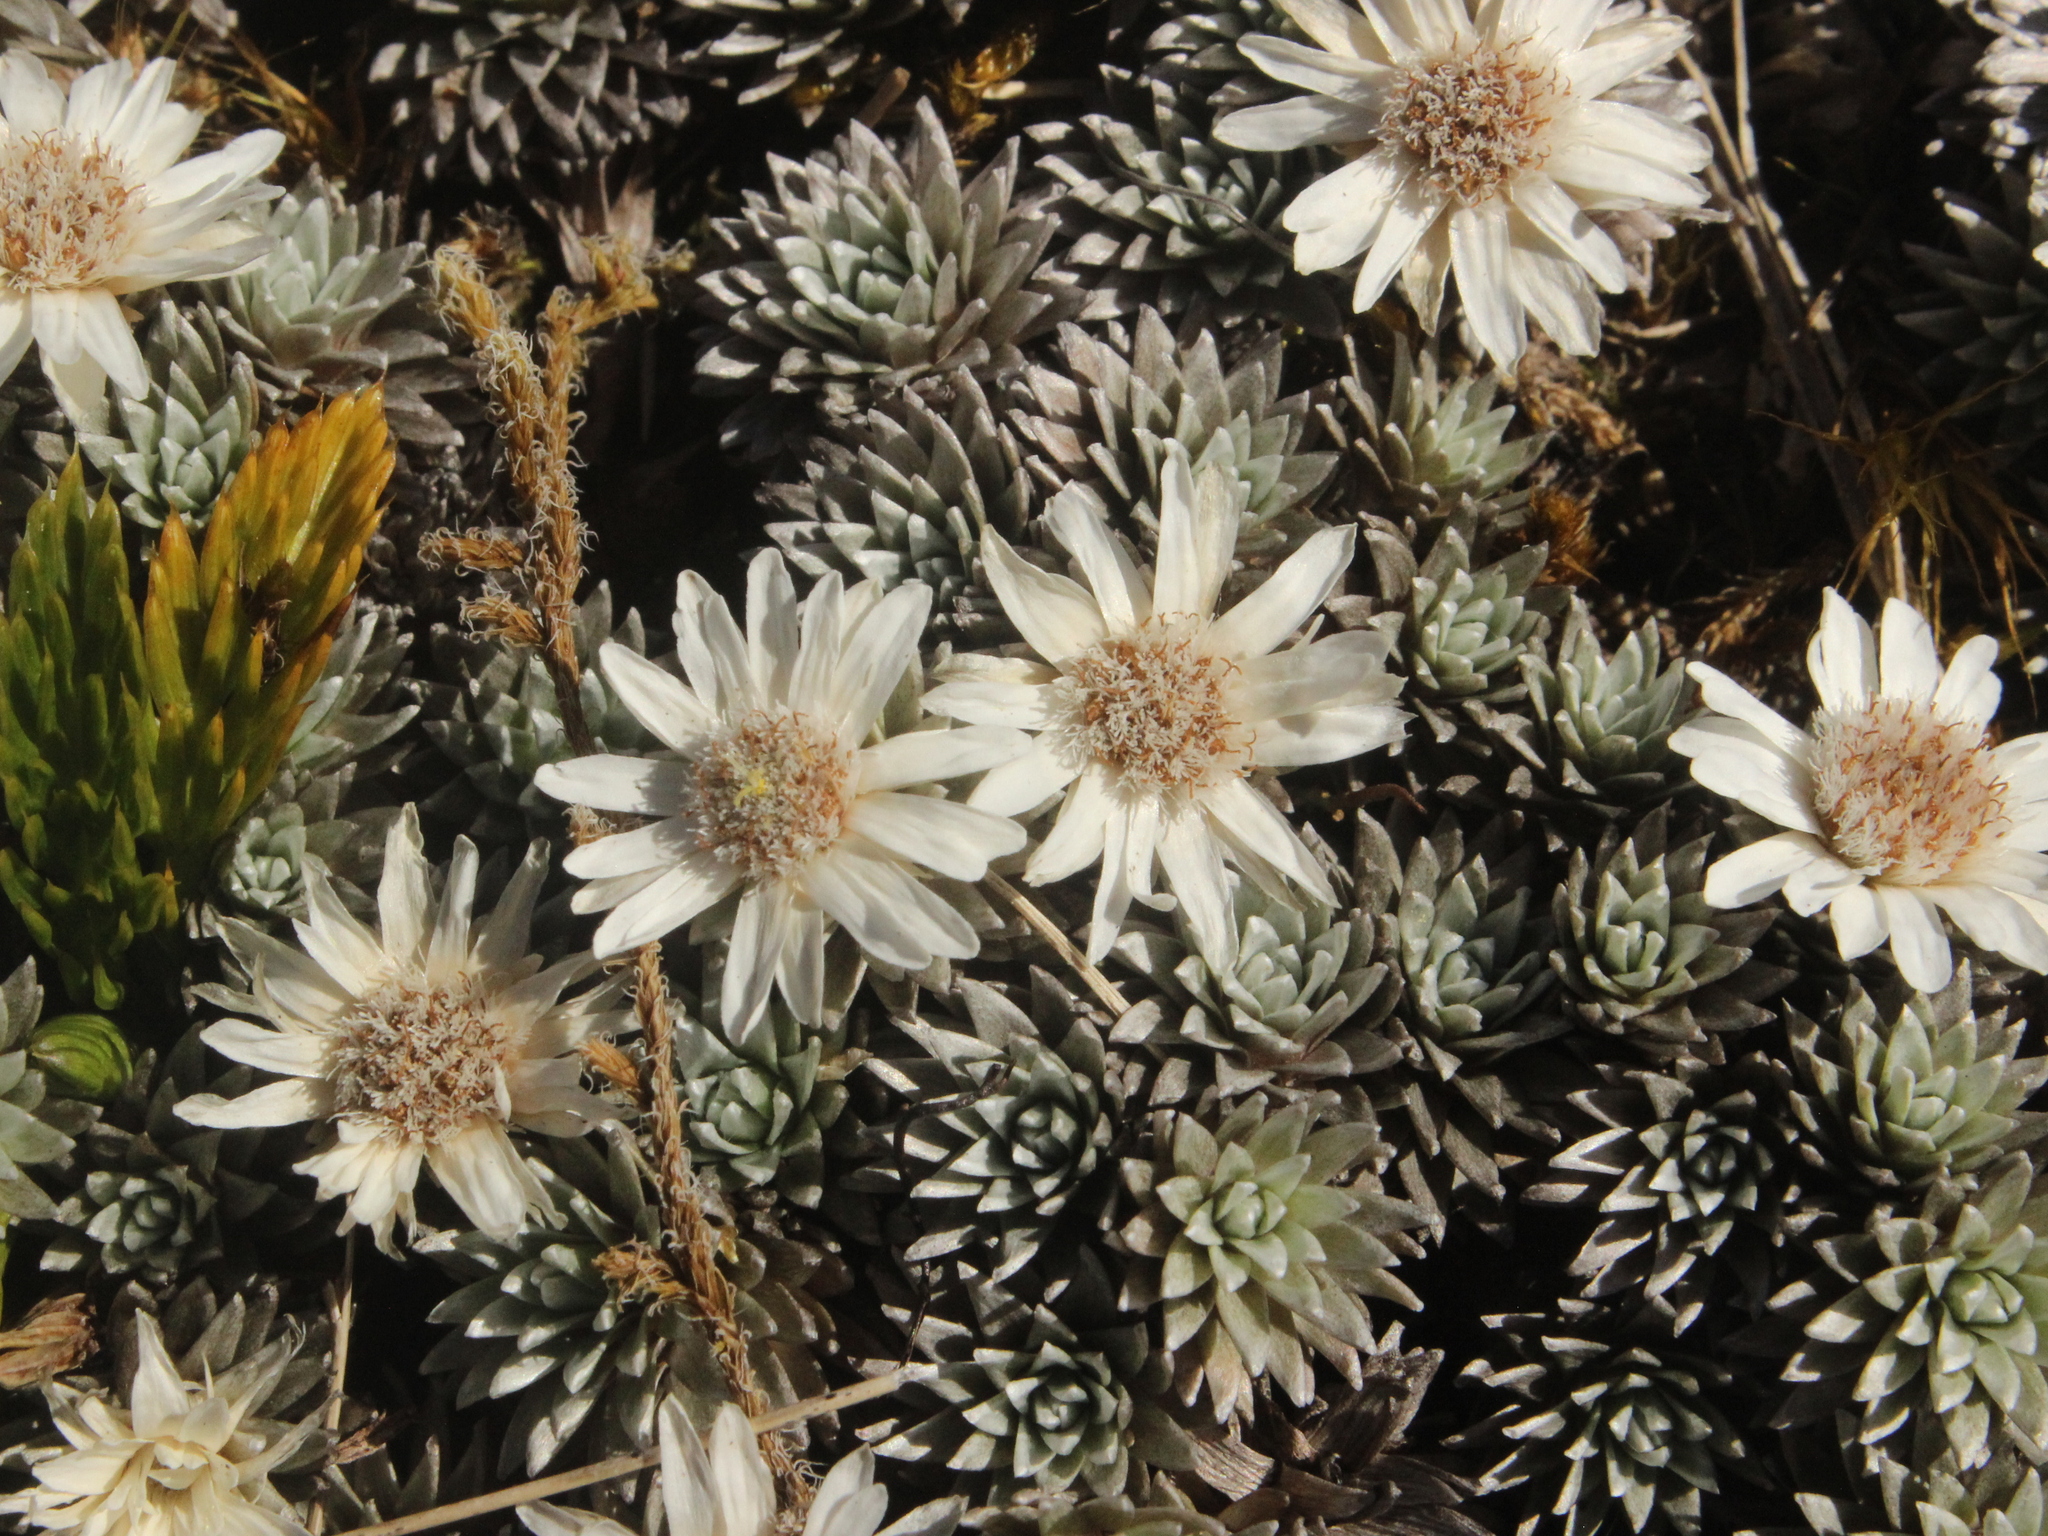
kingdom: Plantae
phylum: Tracheophyta
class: Magnoliopsida
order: Asterales
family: Asteraceae
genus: Raoulia
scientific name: Raoulia grandiflora
